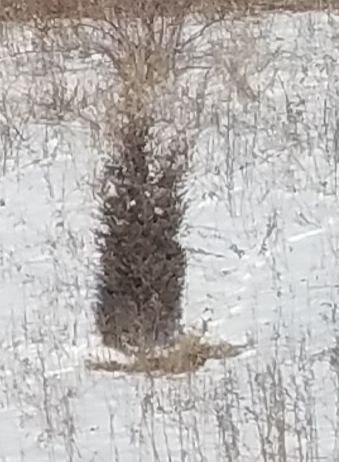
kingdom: Plantae
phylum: Tracheophyta
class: Pinopsida
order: Pinales
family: Cupressaceae
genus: Juniperus
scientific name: Juniperus virginiana
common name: Red juniper
